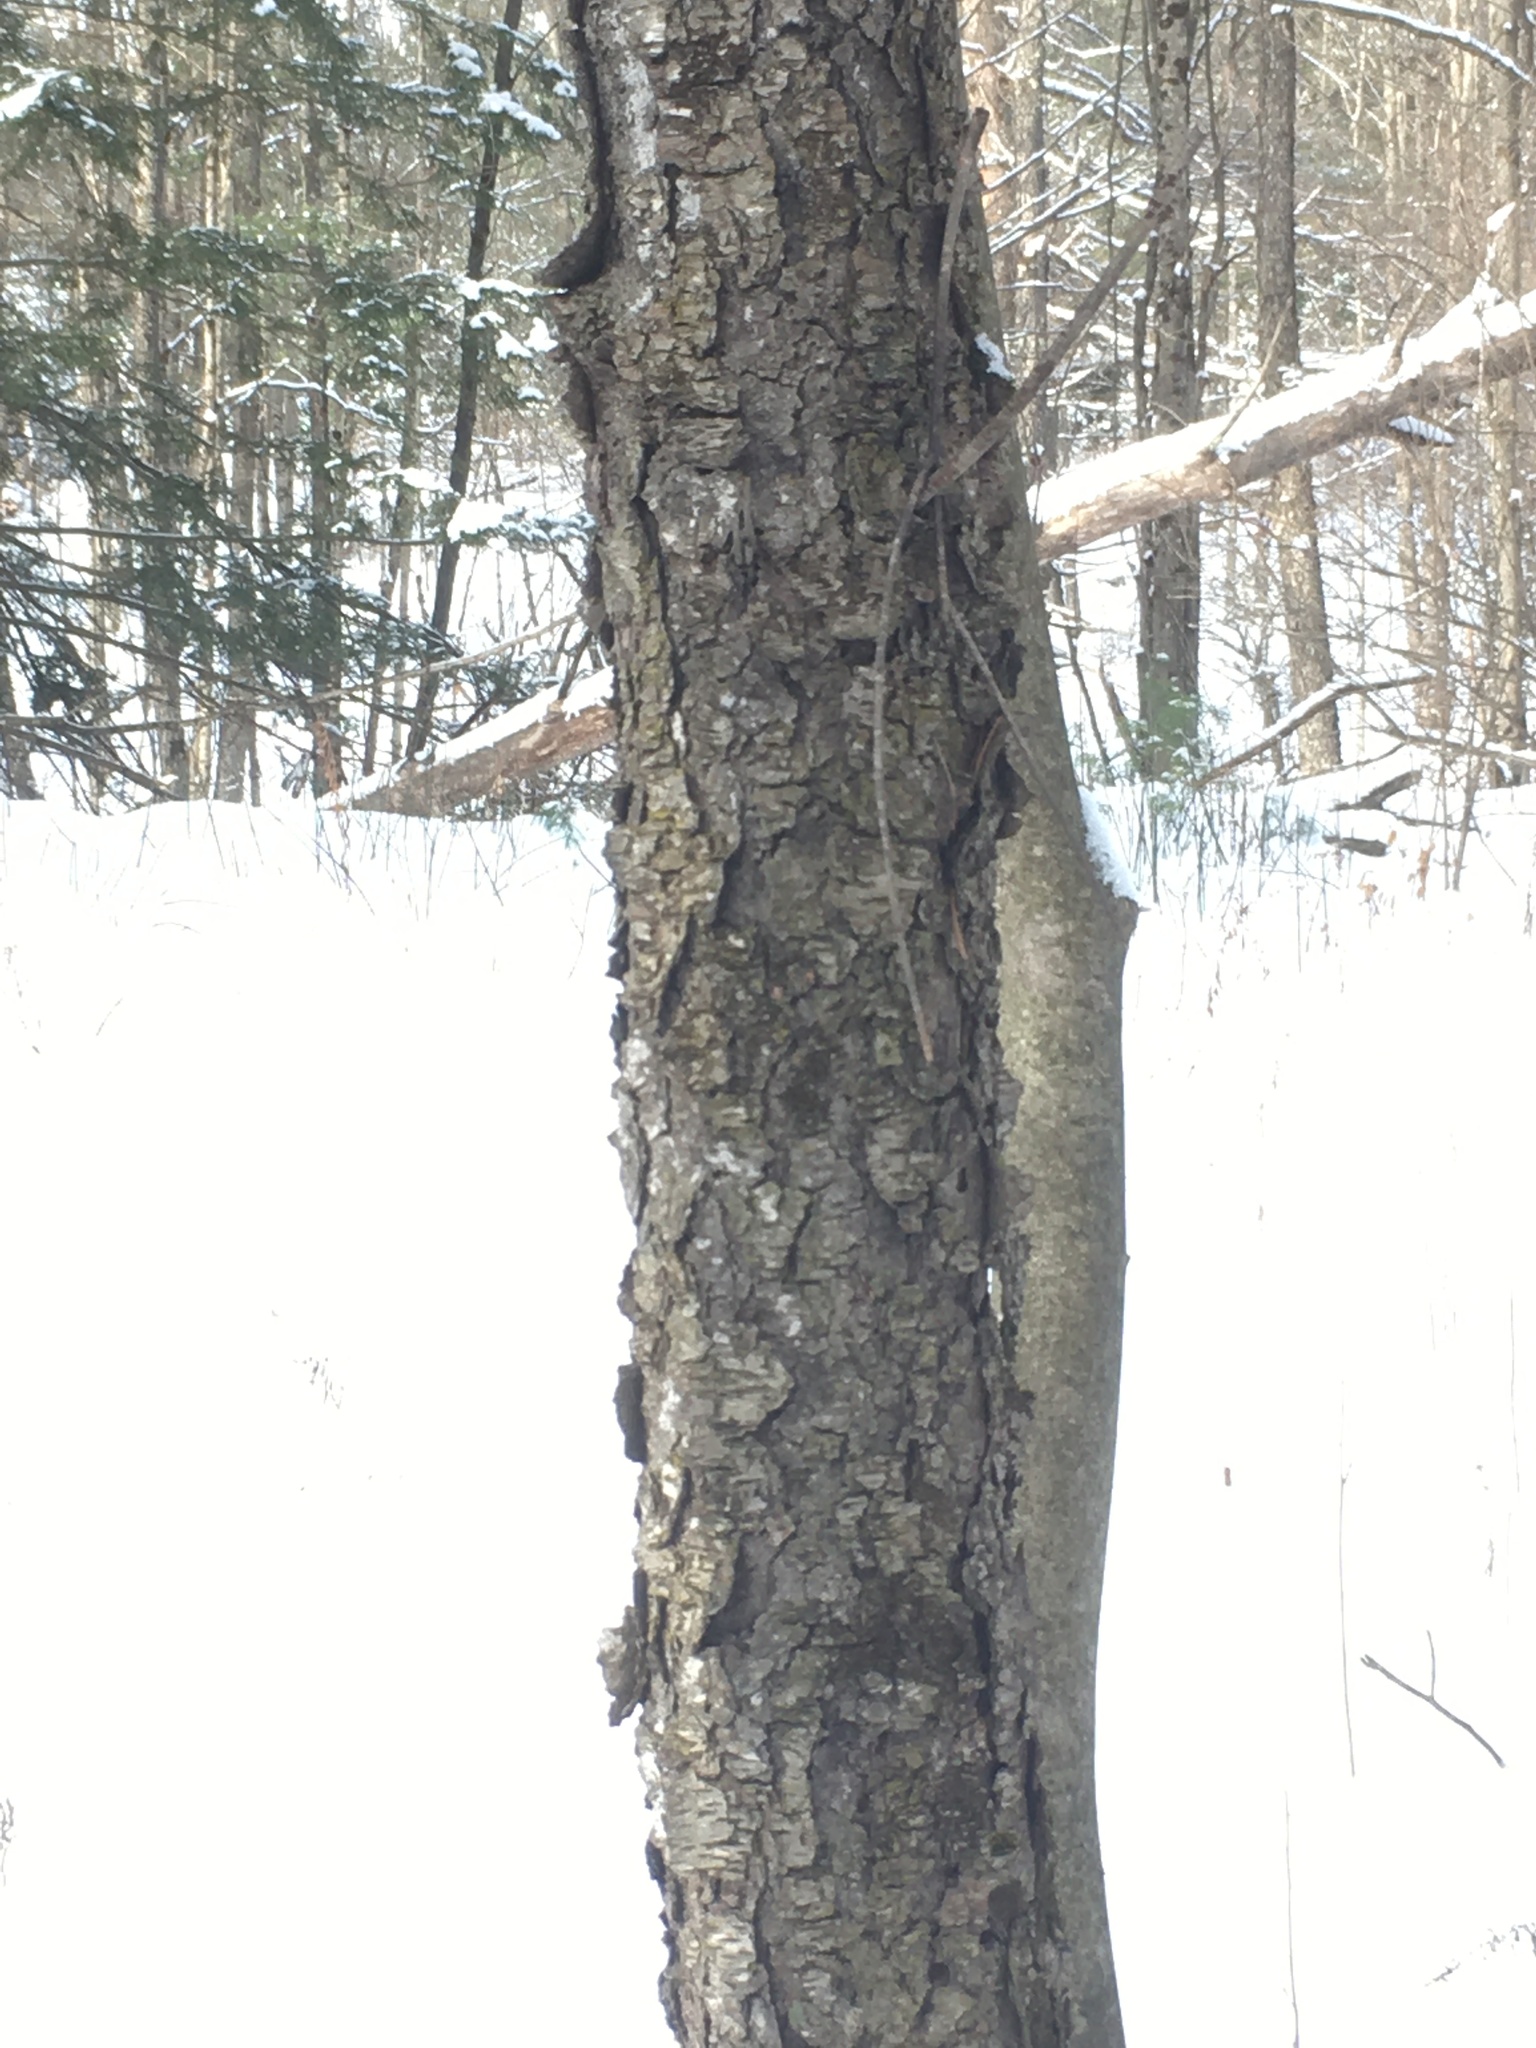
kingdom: Plantae
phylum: Tracheophyta
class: Magnoliopsida
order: Rosales
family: Rosaceae
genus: Prunus
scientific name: Prunus serotina
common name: Black cherry
